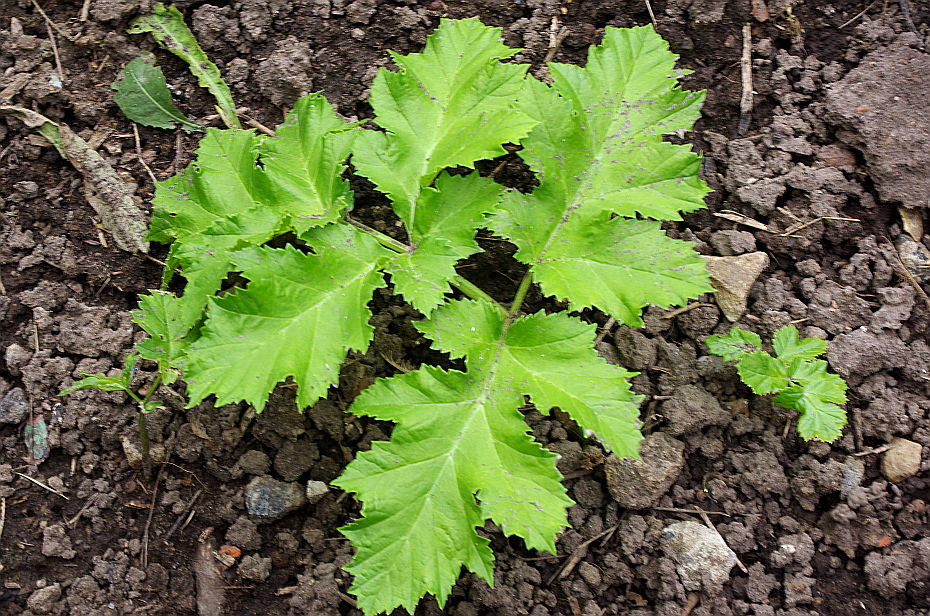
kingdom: Plantae
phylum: Tracheophyta
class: Magnoliopsida
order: Apiales
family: Apiaceae
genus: Heracleum
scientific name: Heracleum sosnowskyi
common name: Sosnowsky's hogweed
